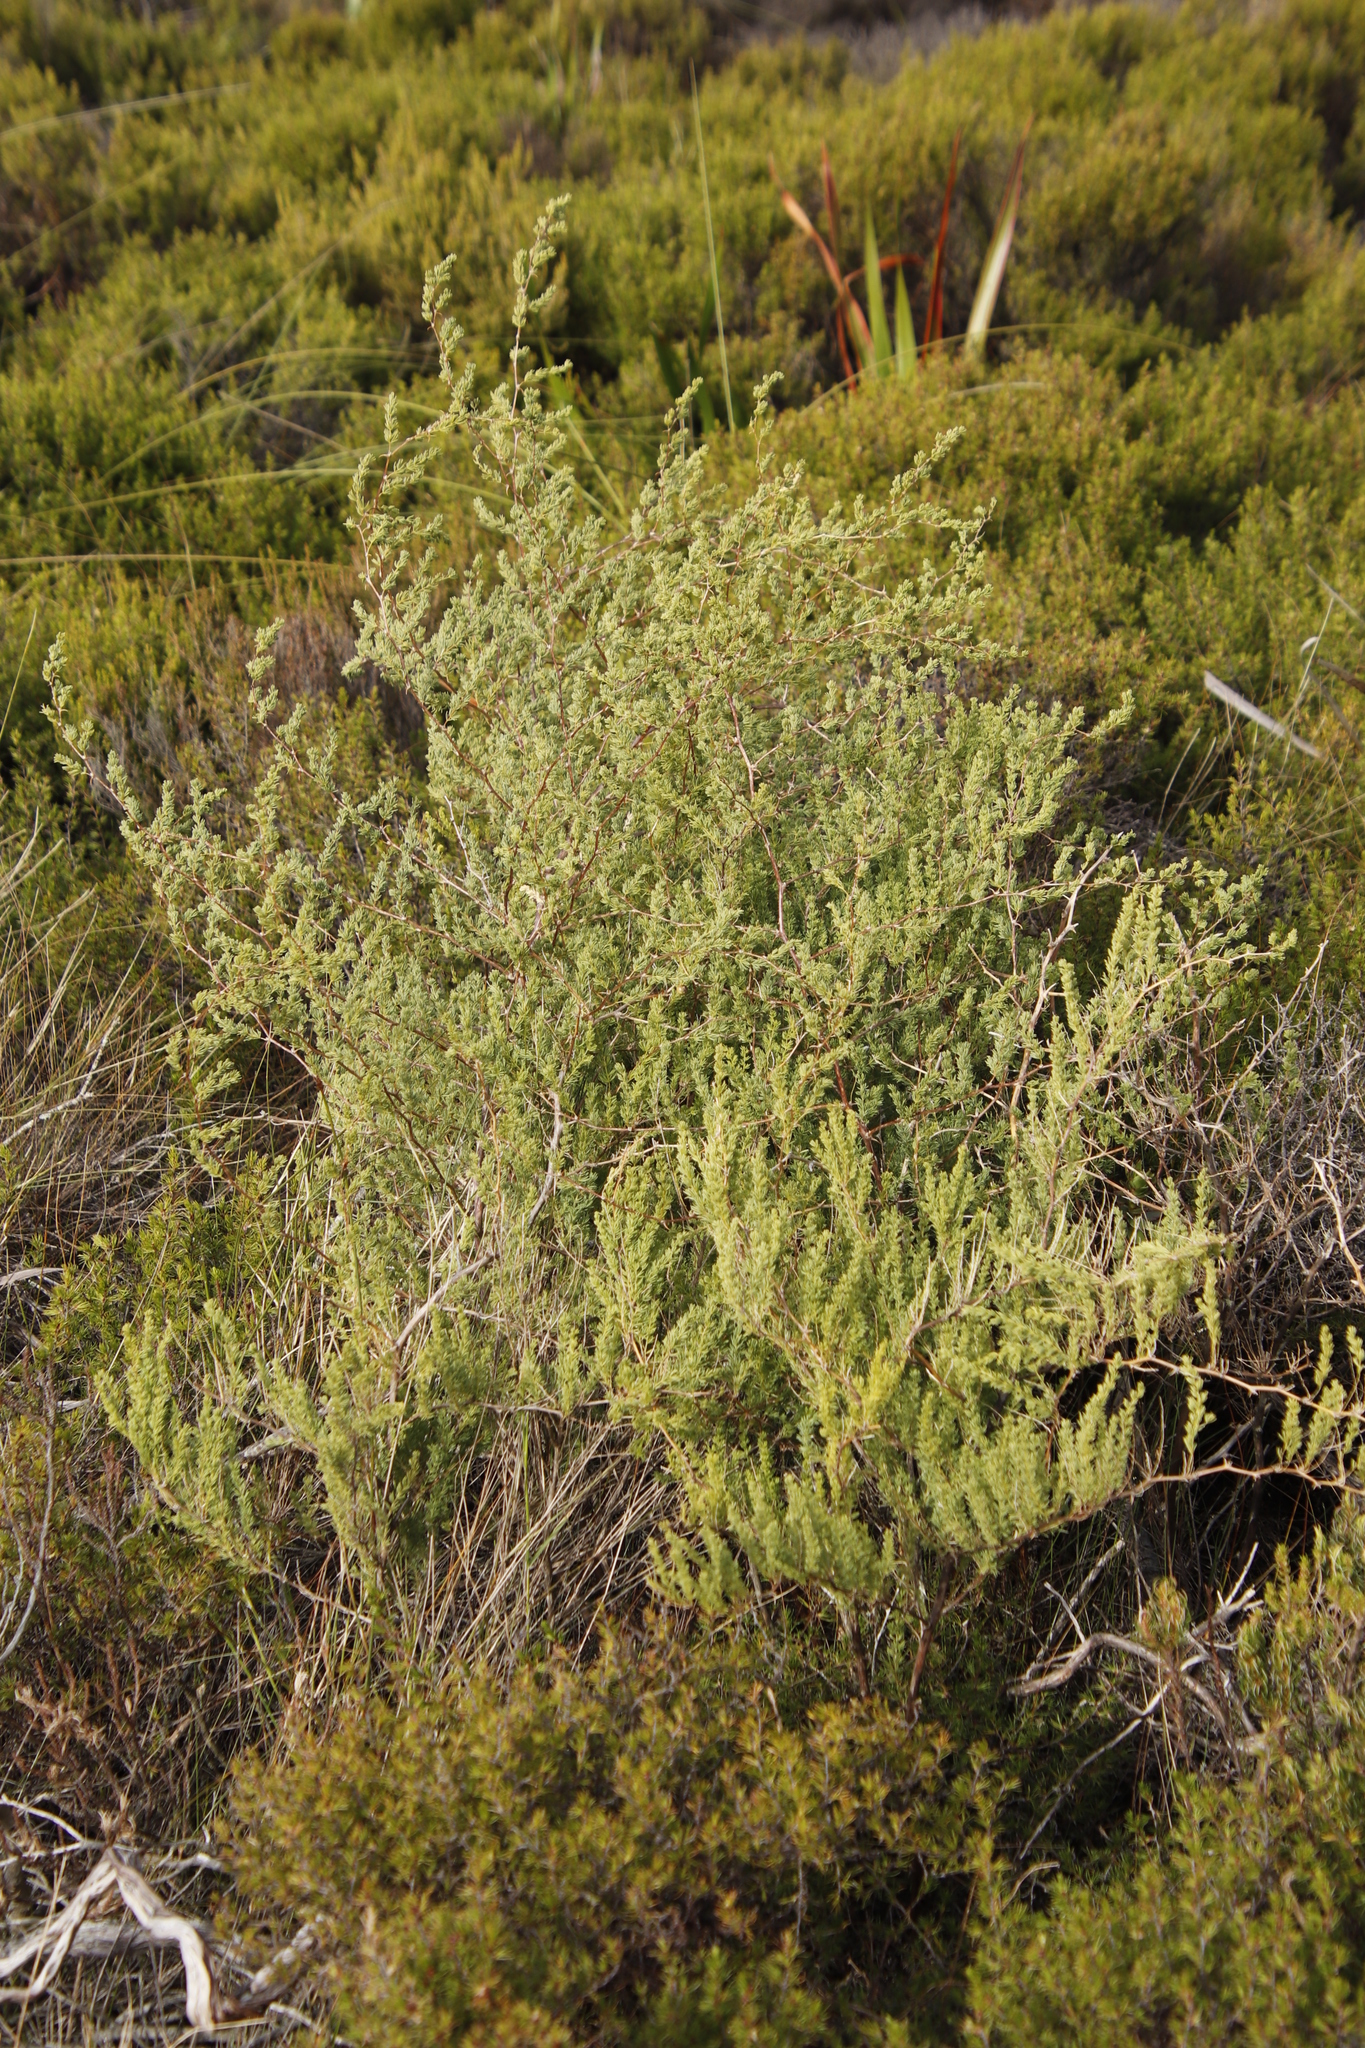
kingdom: Plantae
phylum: Tracheophyta
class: Liliopsida
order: Asparagales
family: Asparagaceae
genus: Asparagus
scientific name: Asparagus rubicundus
